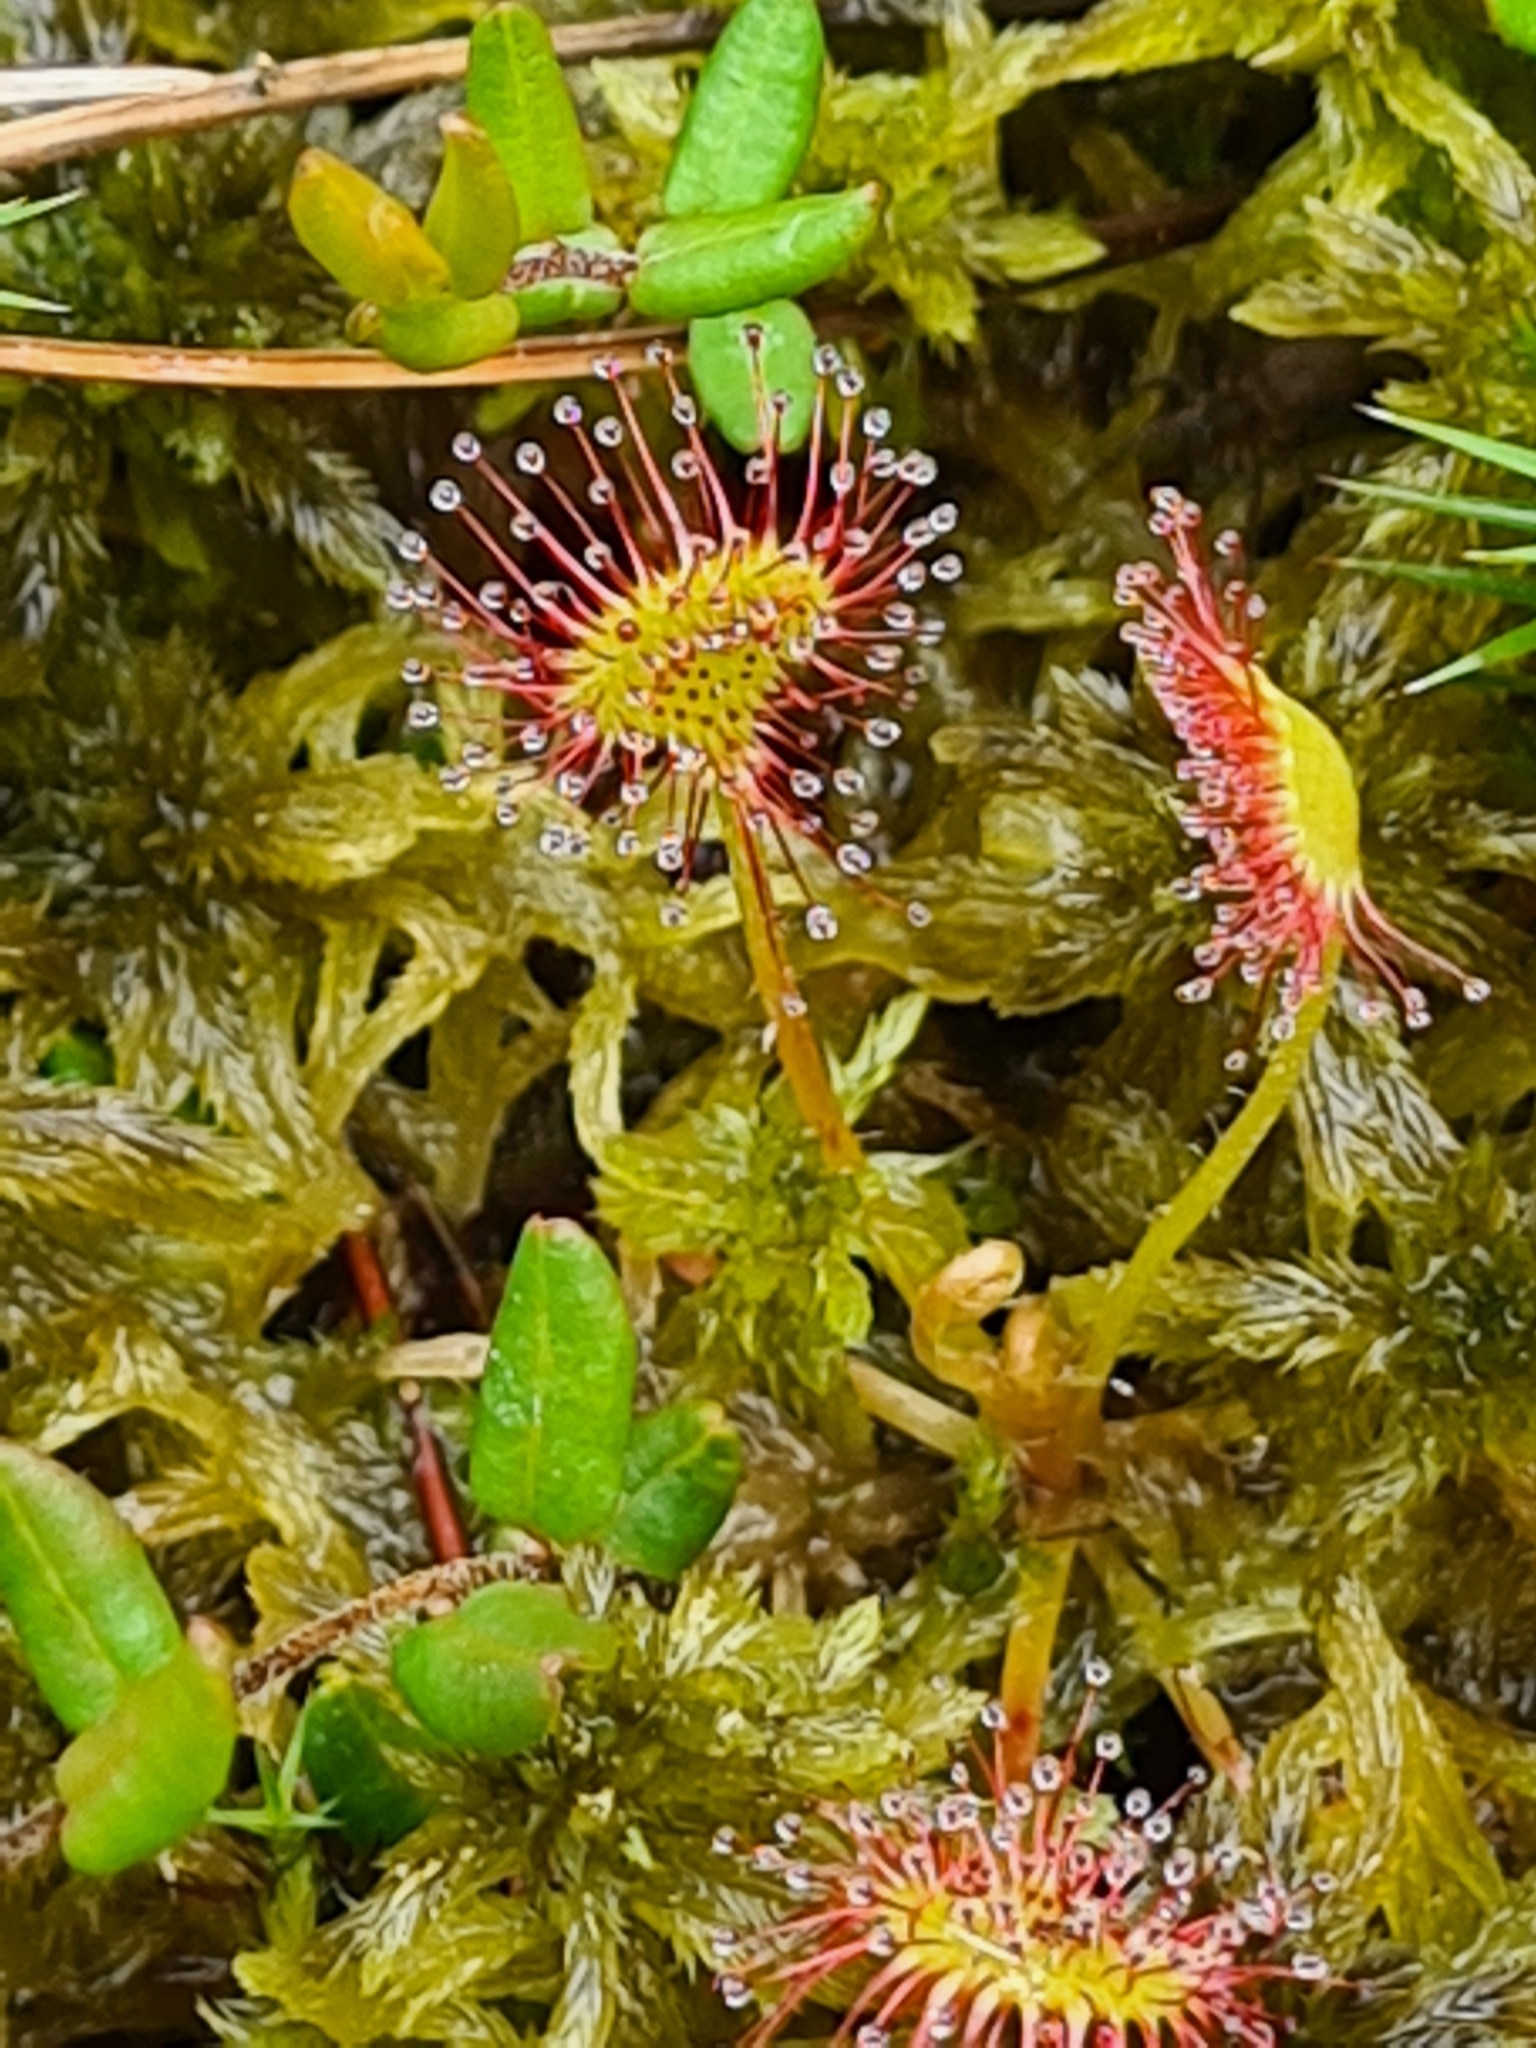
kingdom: Plantae
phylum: Tracheophyta
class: Magnoliopsida
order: Caryophyllales
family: Droseraceae
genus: Drosera
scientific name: Drosera rotundifolia
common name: Round-leaved sundew
